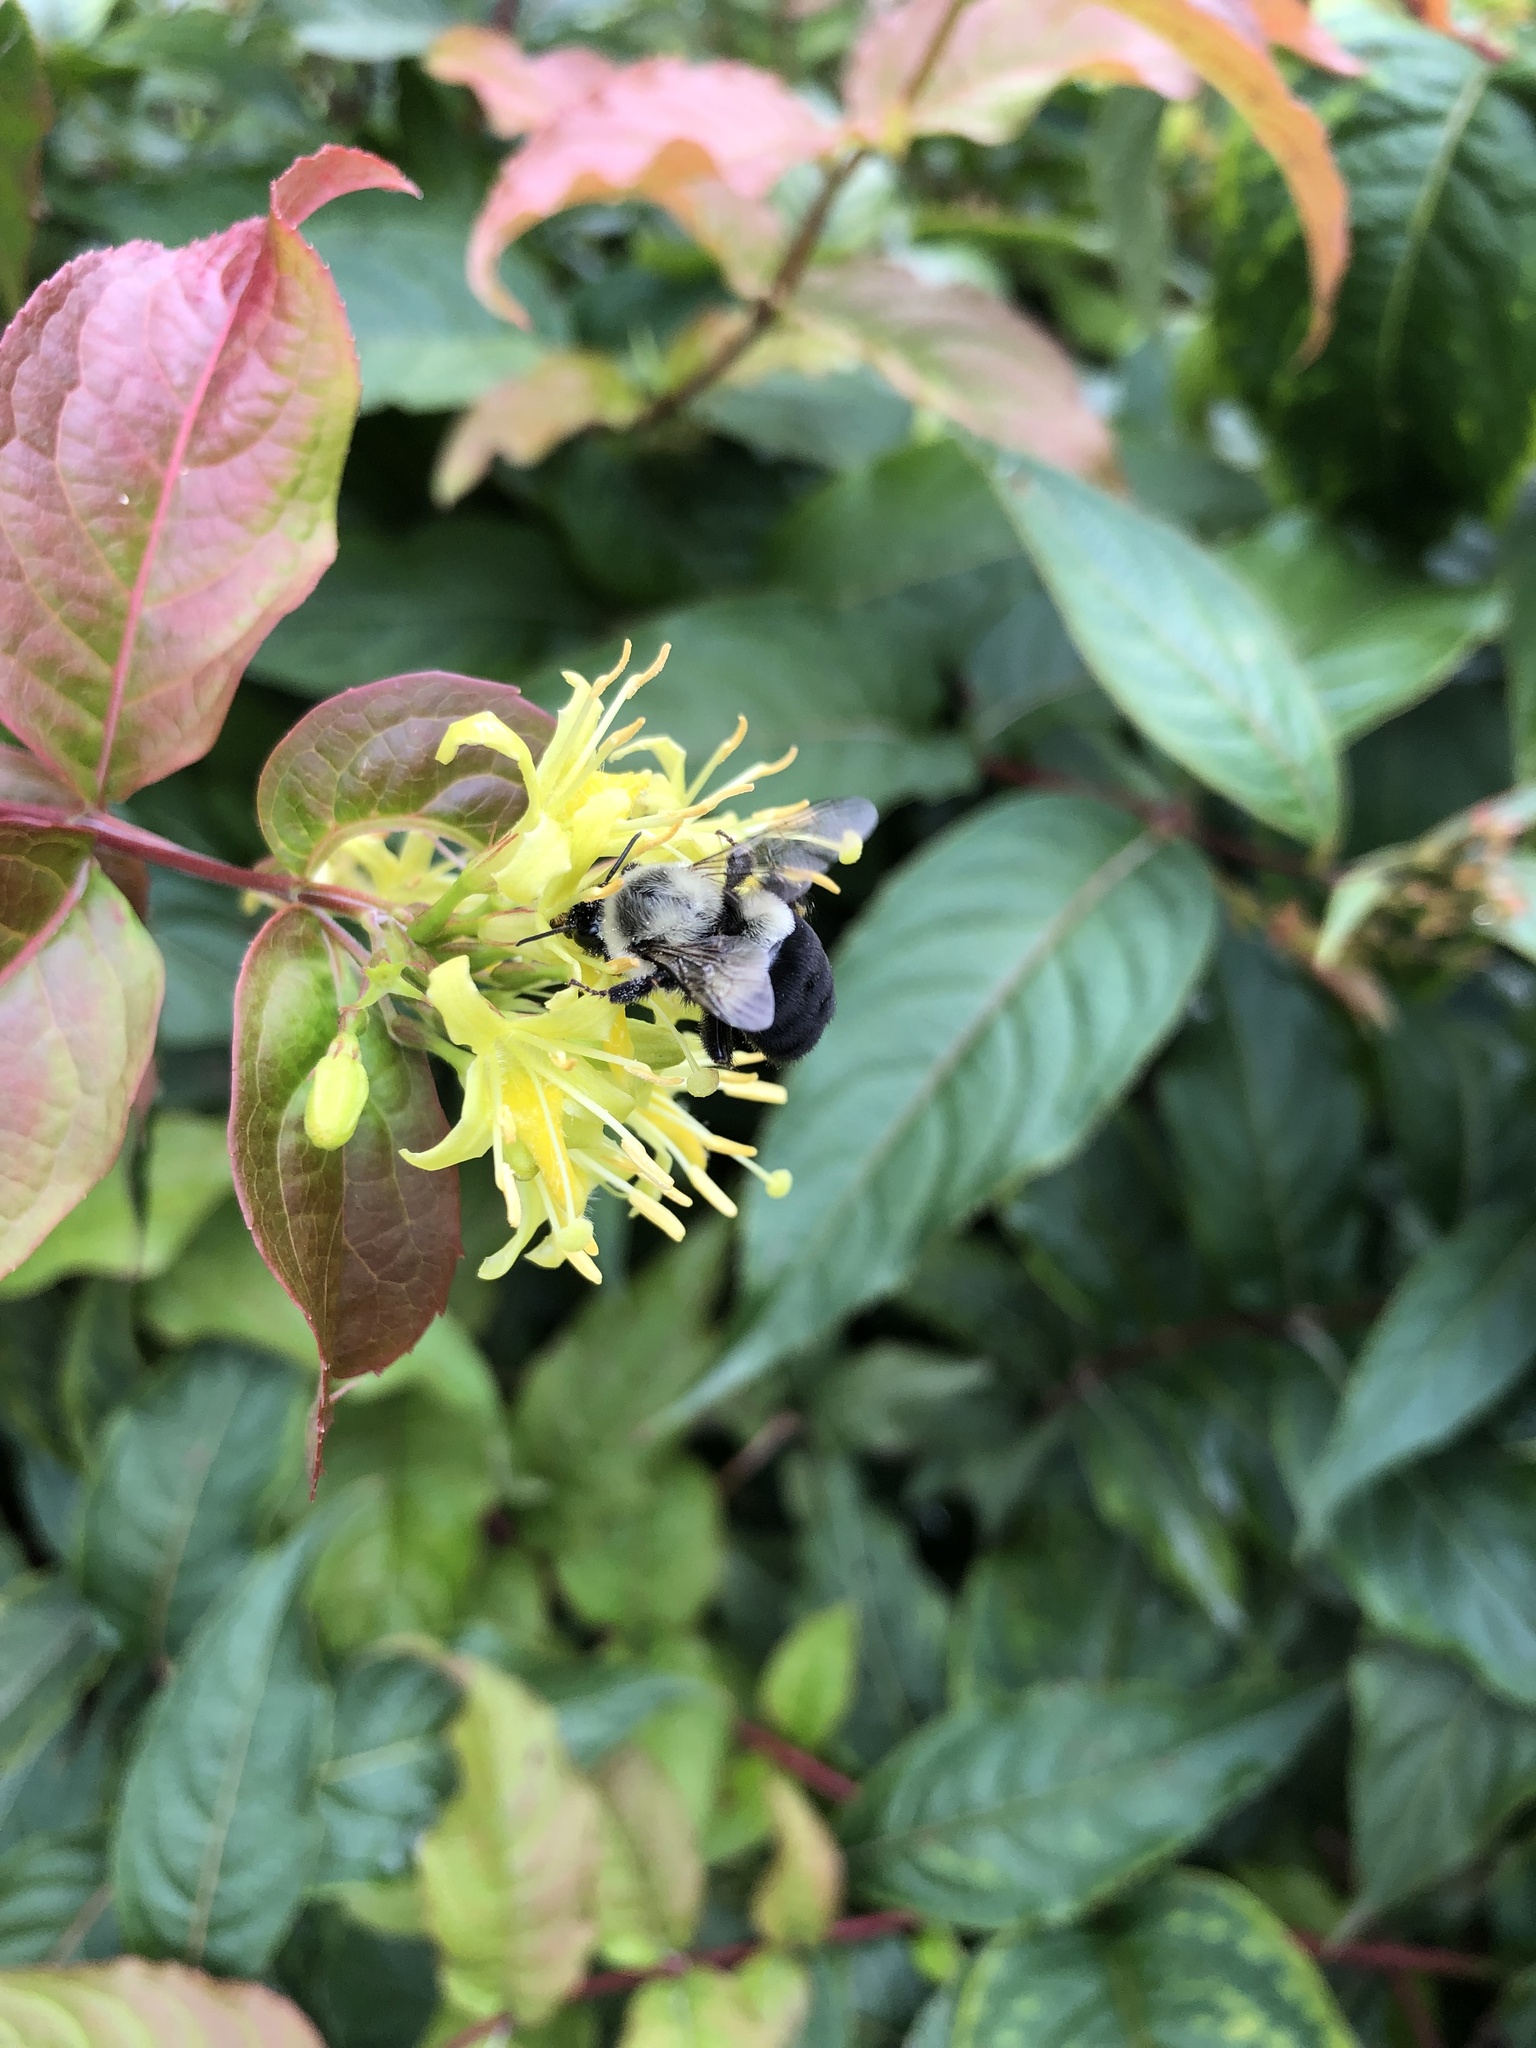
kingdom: Animalia
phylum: Arthropoda
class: Insecta
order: Hymenoptera
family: Apidae
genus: Bombus
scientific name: Bombus impatiens
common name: Common eastern bumble bee
